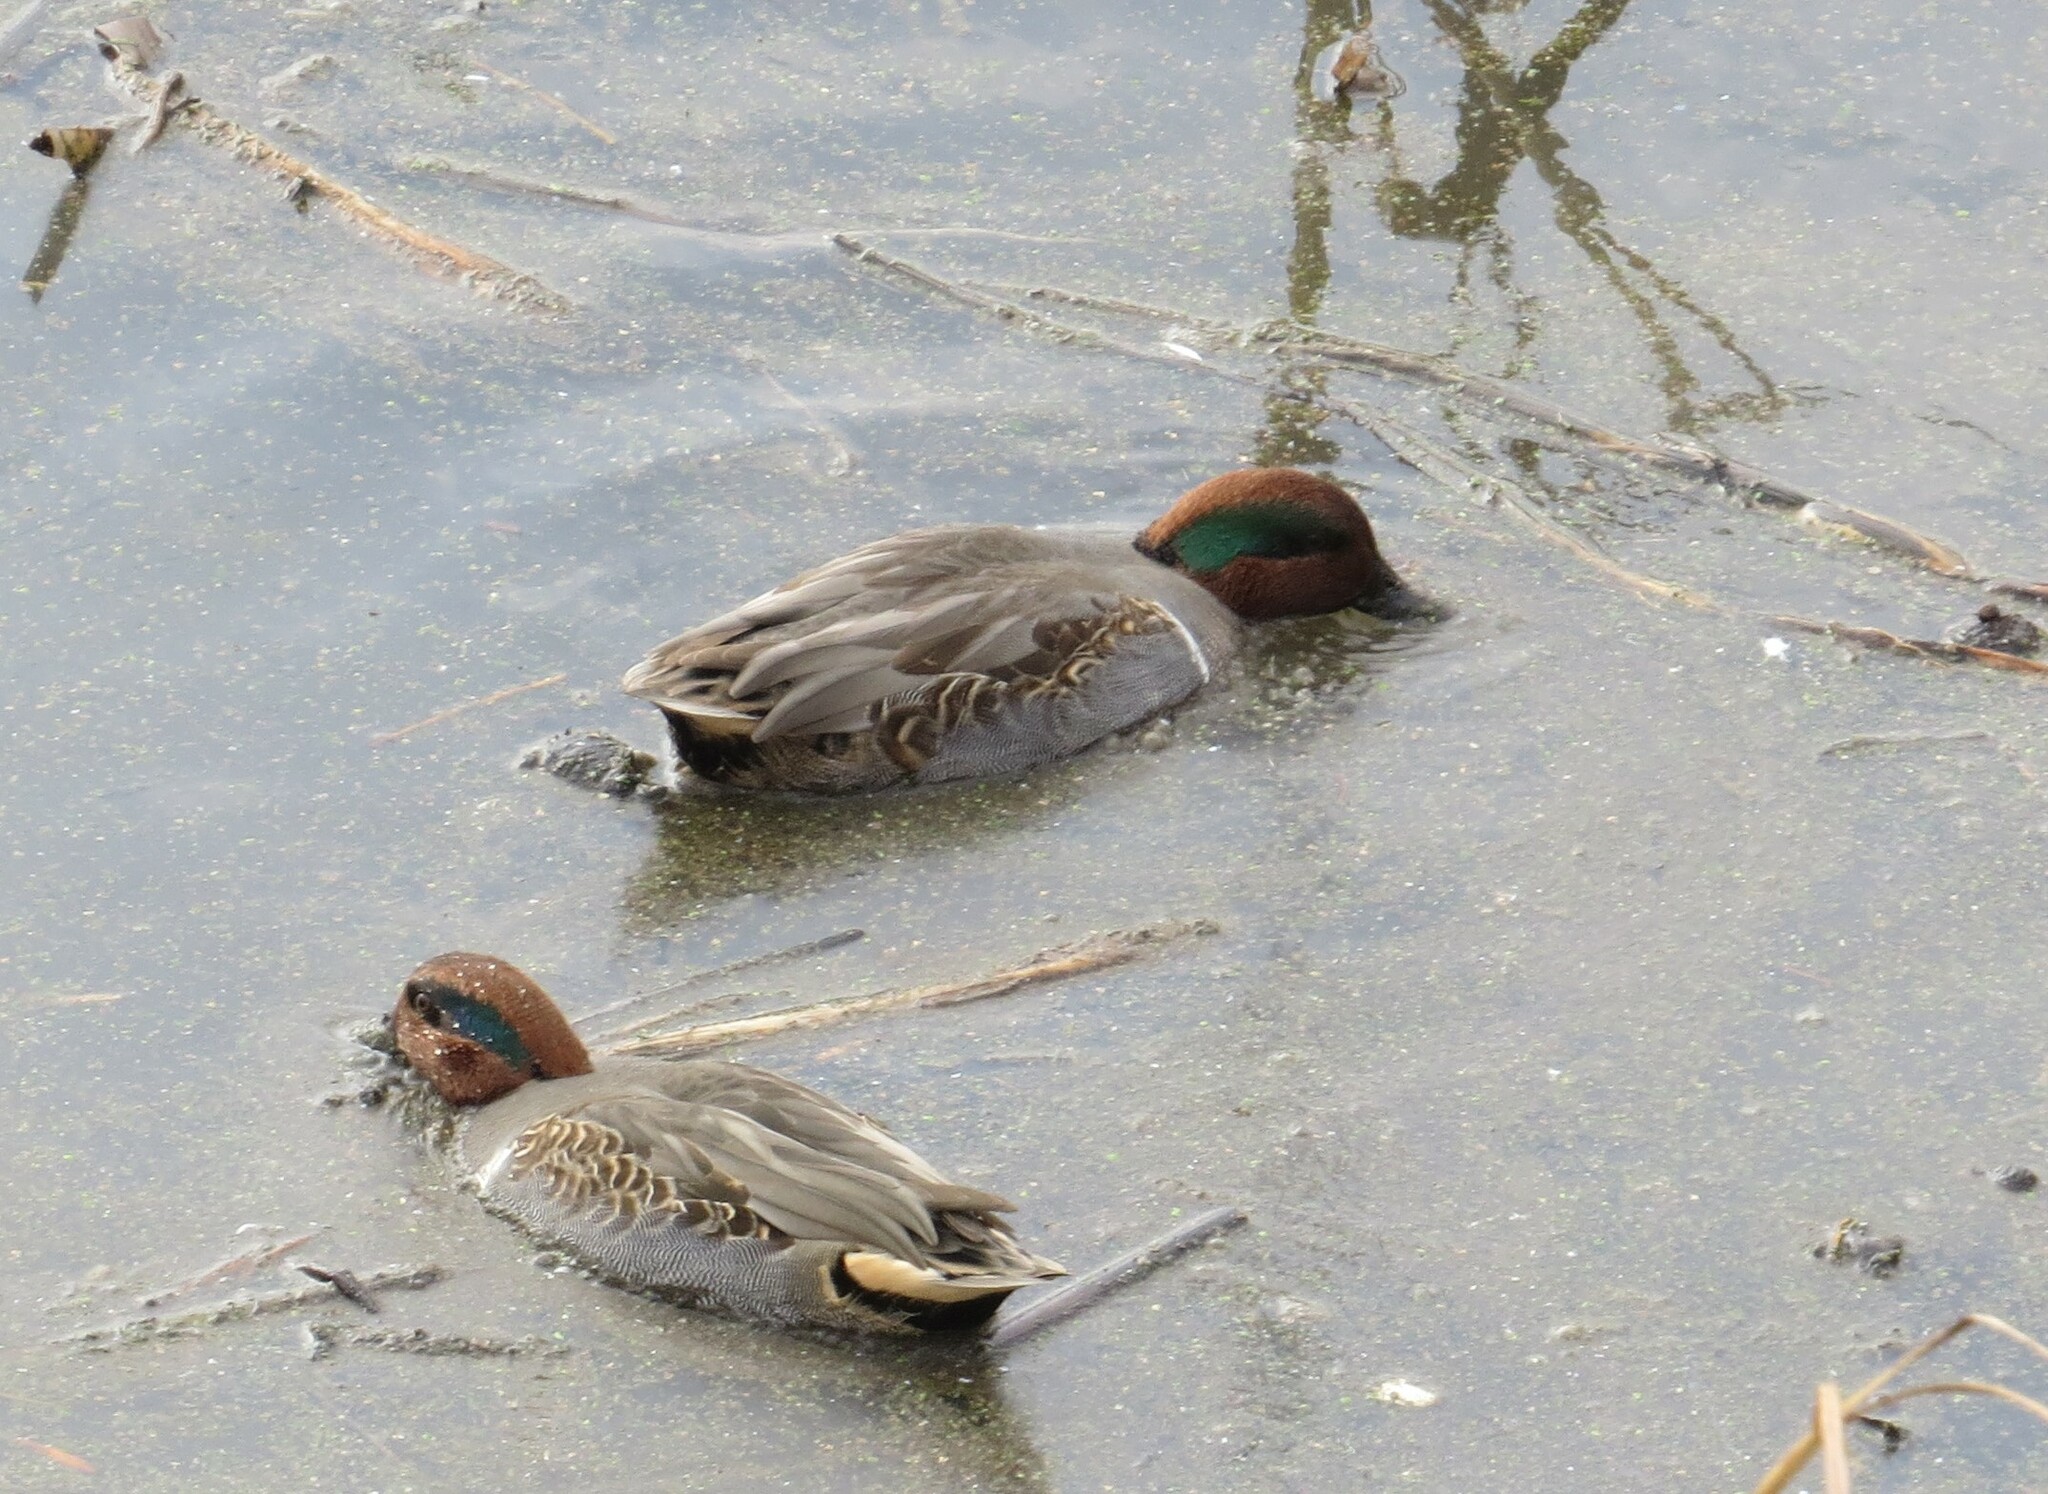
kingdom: Animalia
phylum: Chordata
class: Aves
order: Anseriformes
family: Anatidae
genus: Anas
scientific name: Anas crecca
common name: Eurasian teal
